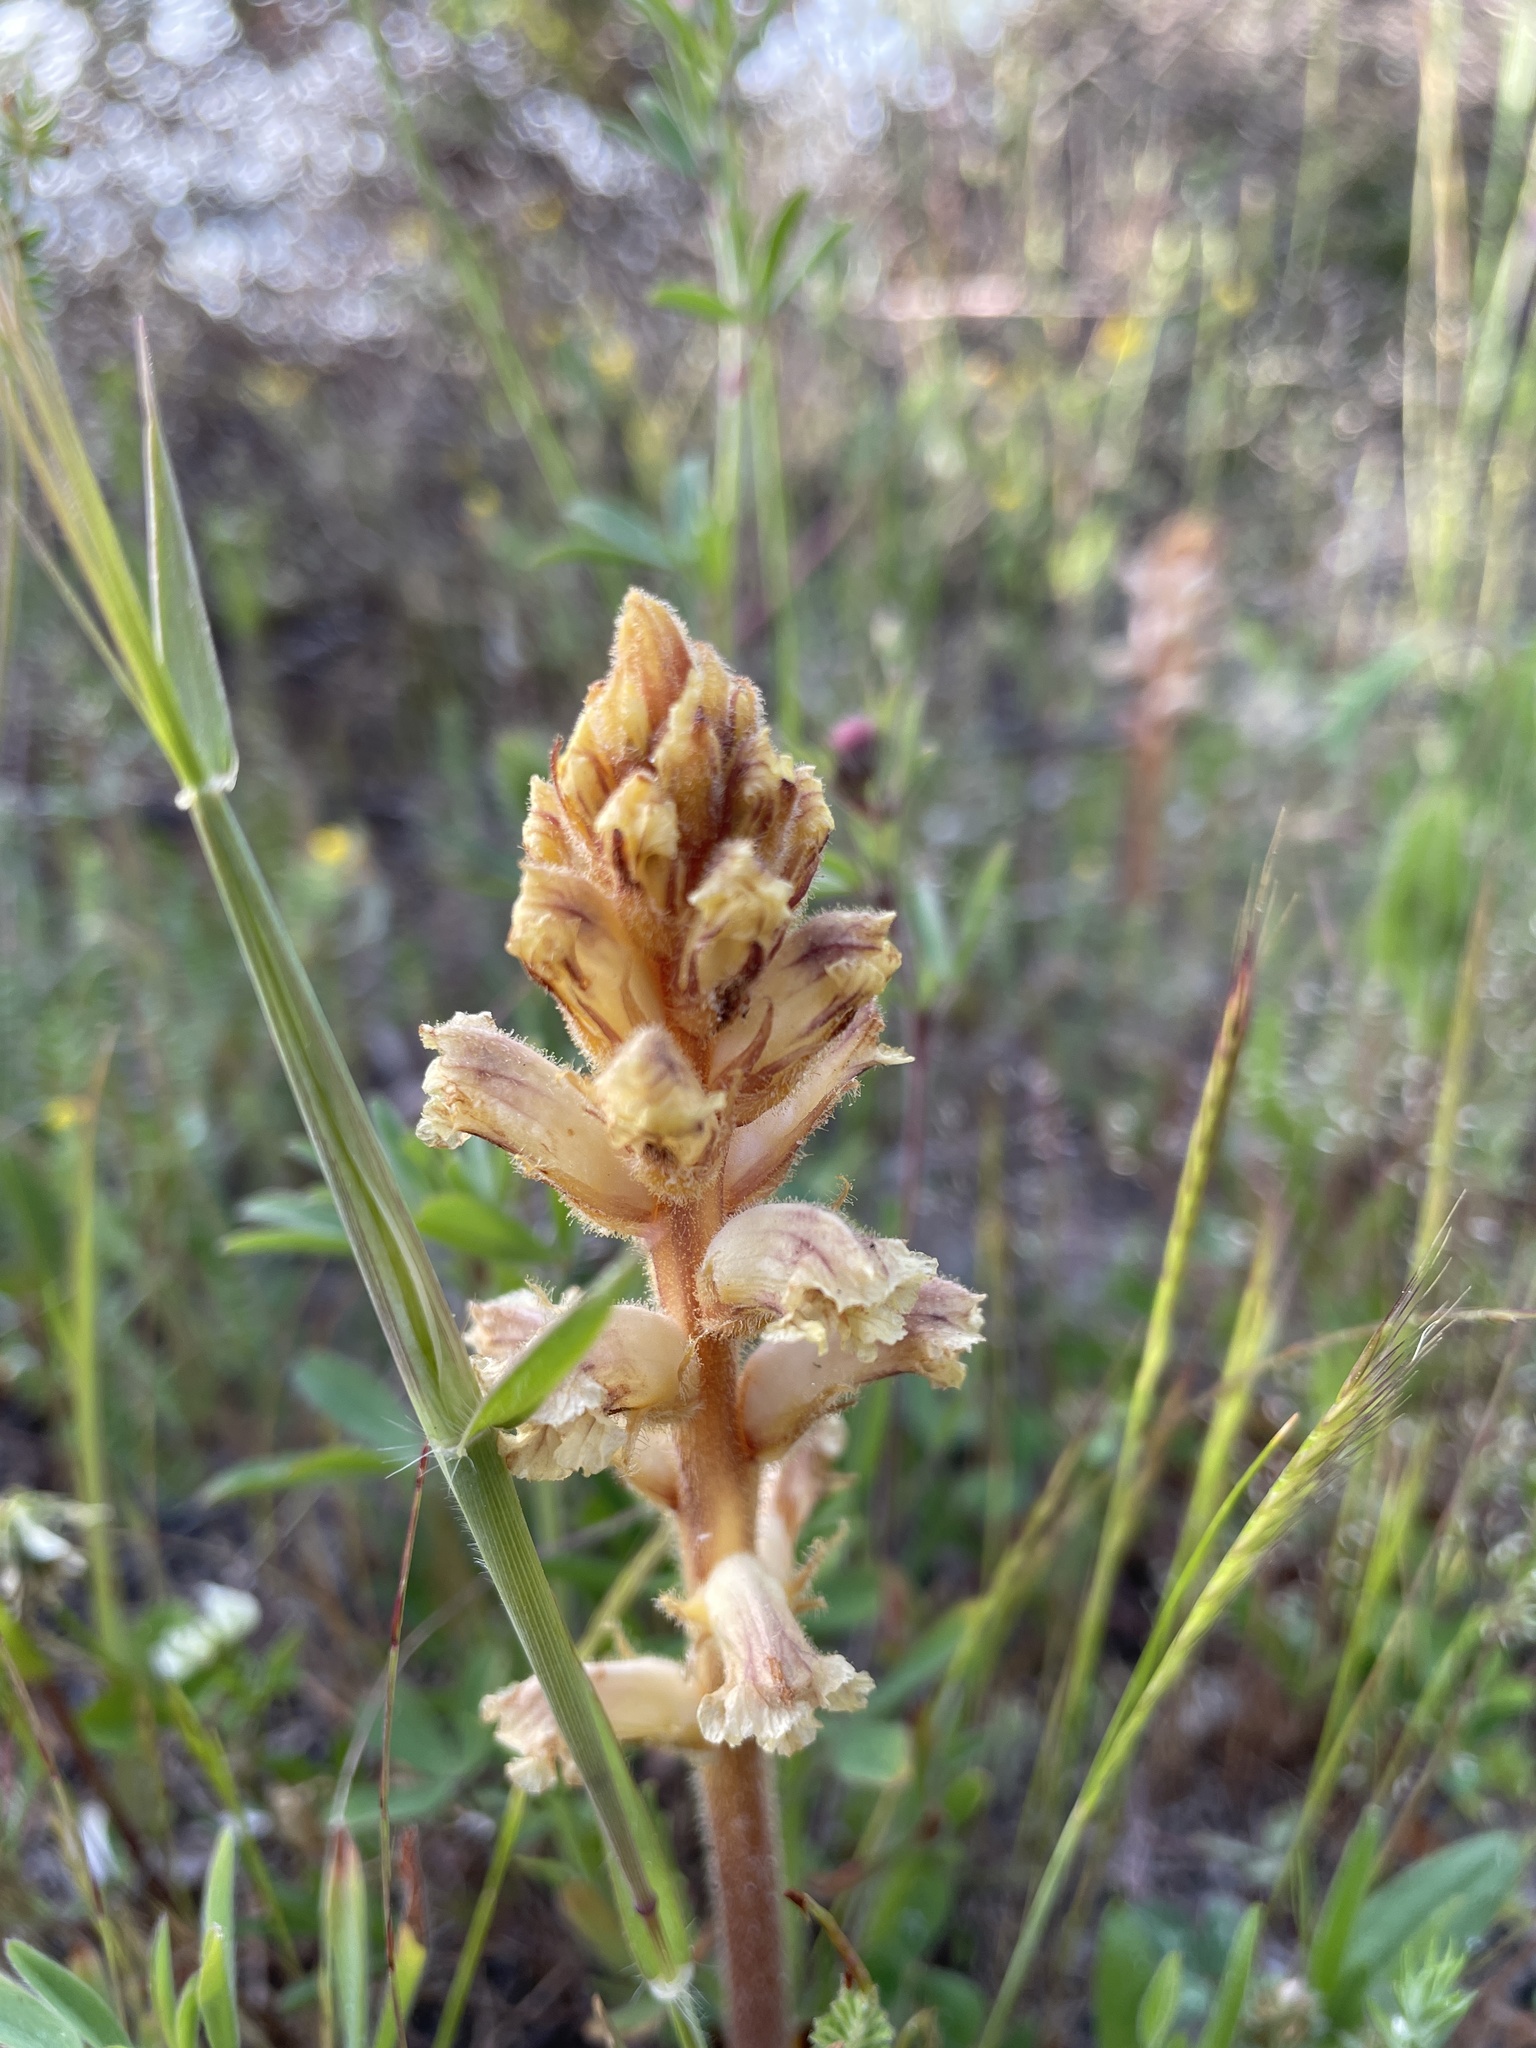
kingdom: Plantae
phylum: Tracheophyta
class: Magnoliopsida
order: Lamiales
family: Orobanchaceae
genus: Orobanche
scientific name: Orobanche minor
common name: Common broomrape
